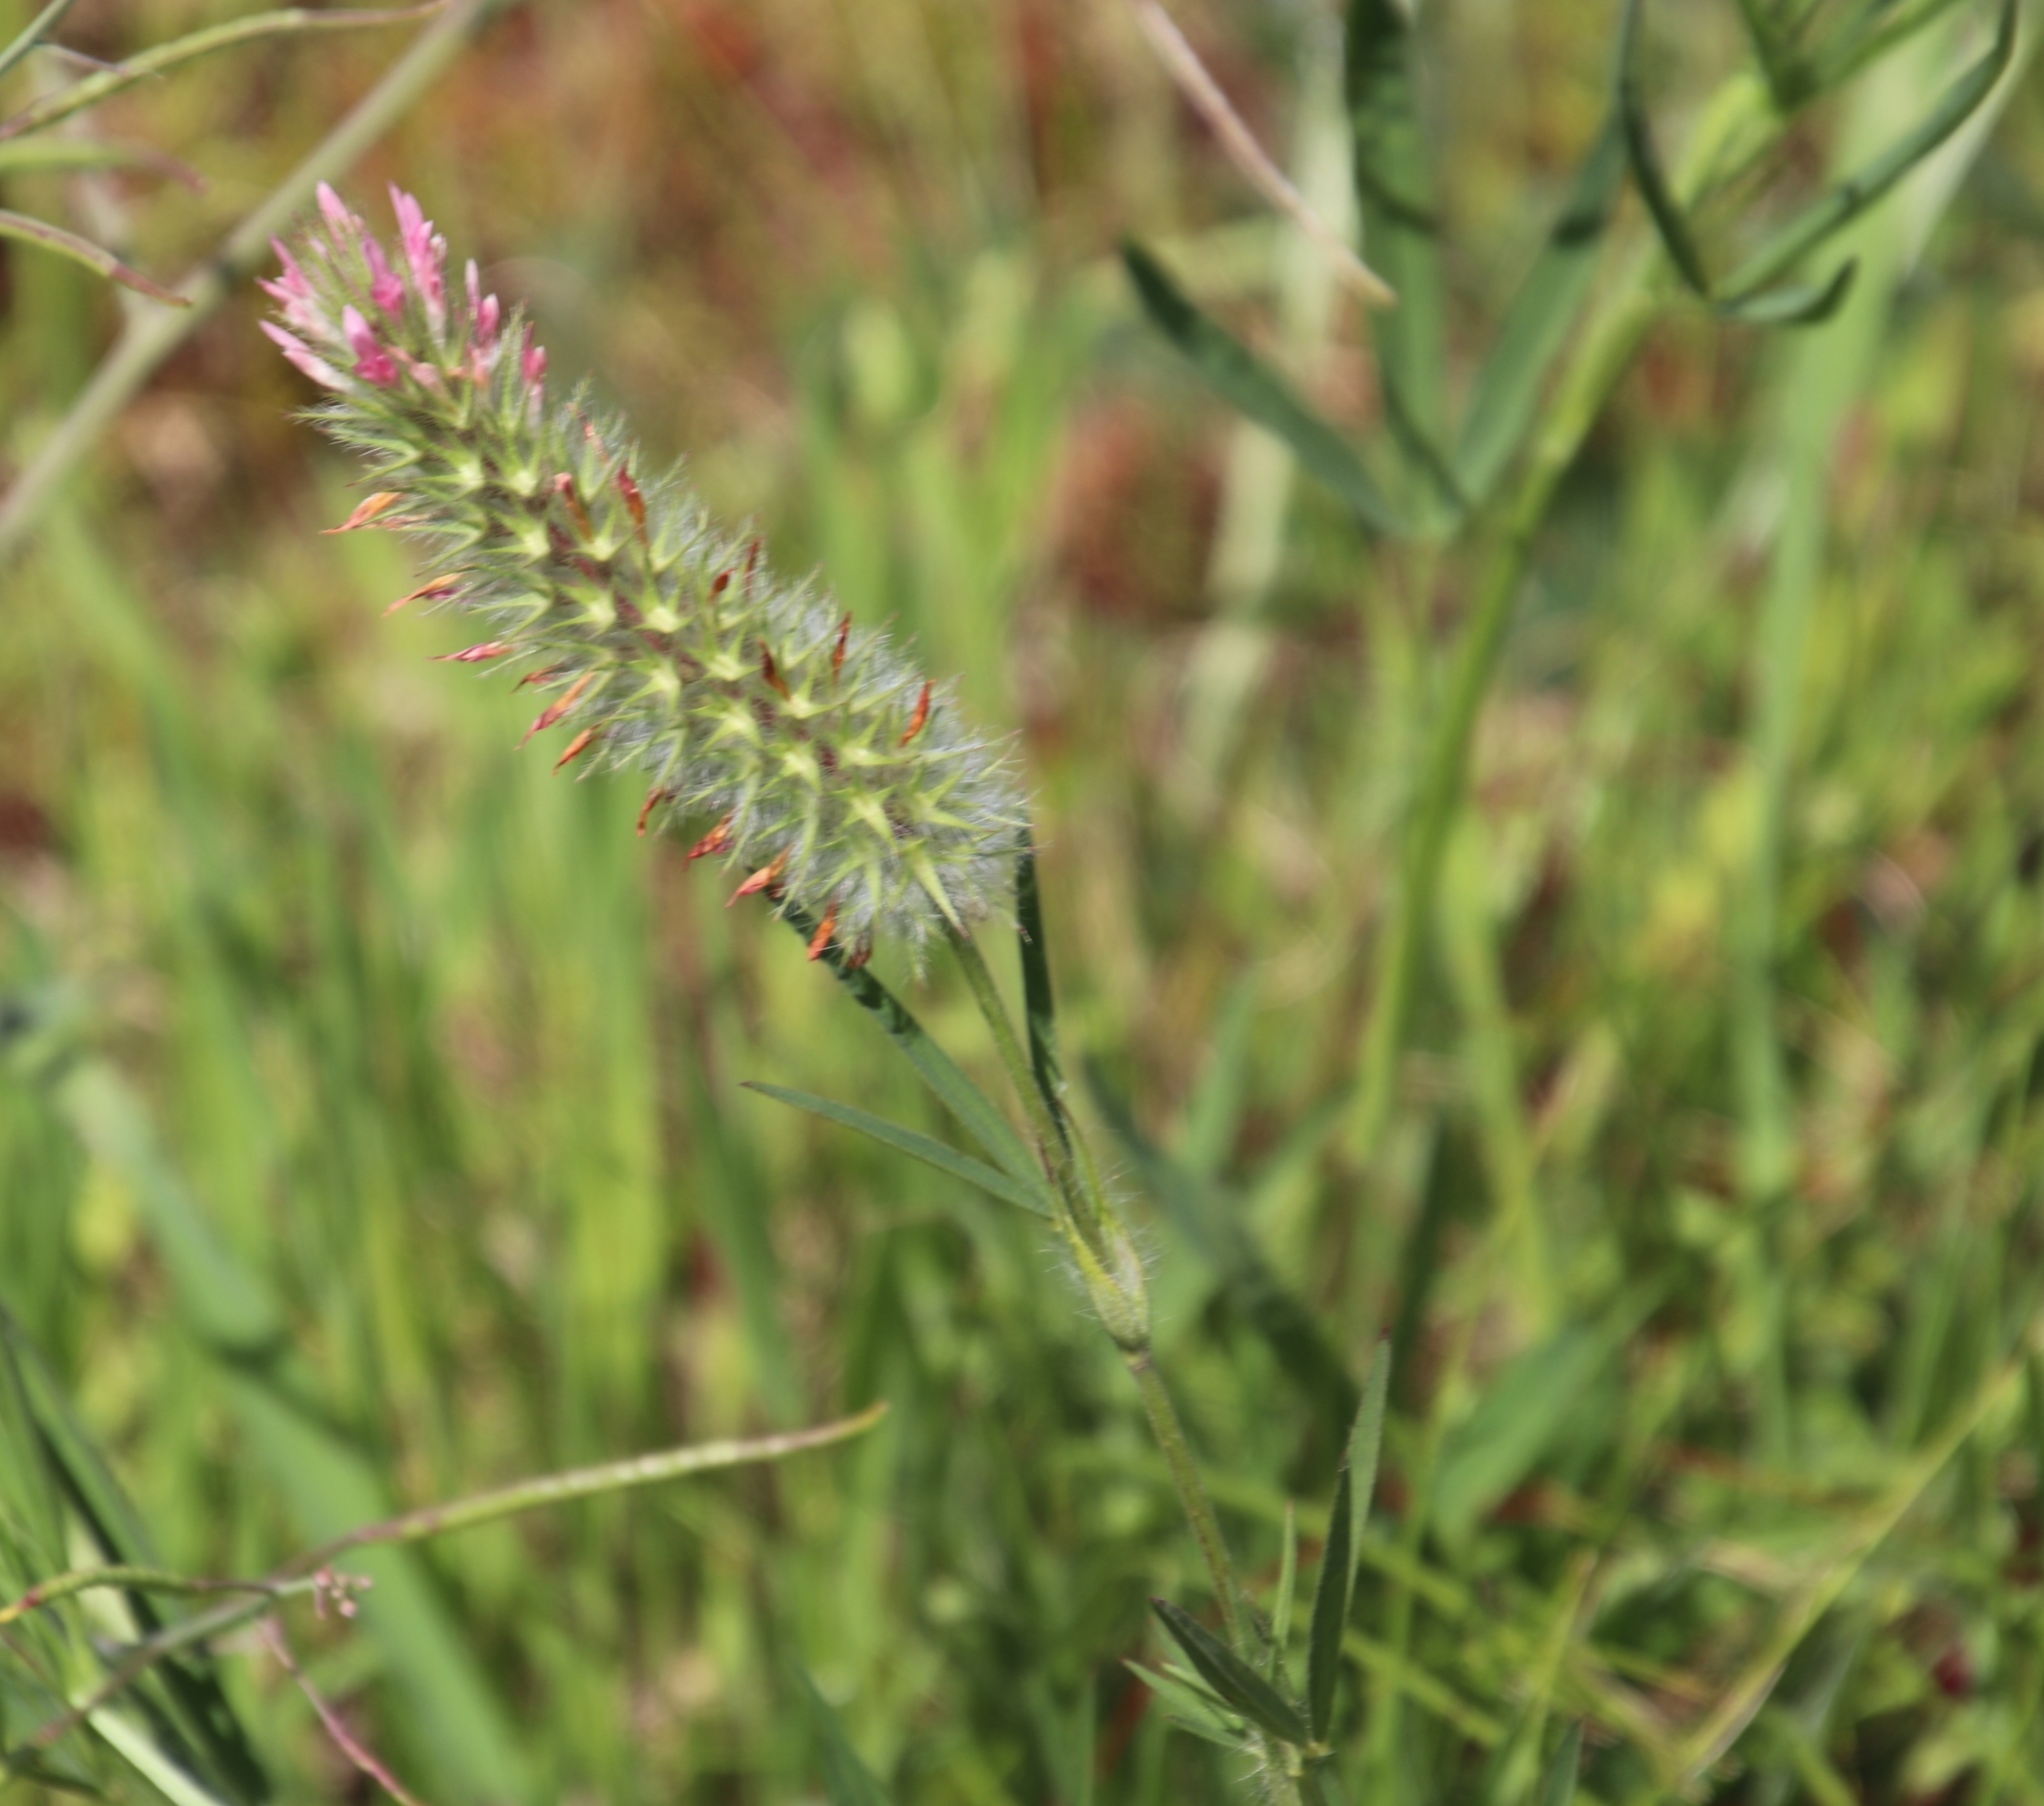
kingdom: Plantae
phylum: Tracheophyta
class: Magnoliopsida
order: Fabales
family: Fabaceae
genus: Trifolium
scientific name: Trifolium angustifolium
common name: Narrow clover
